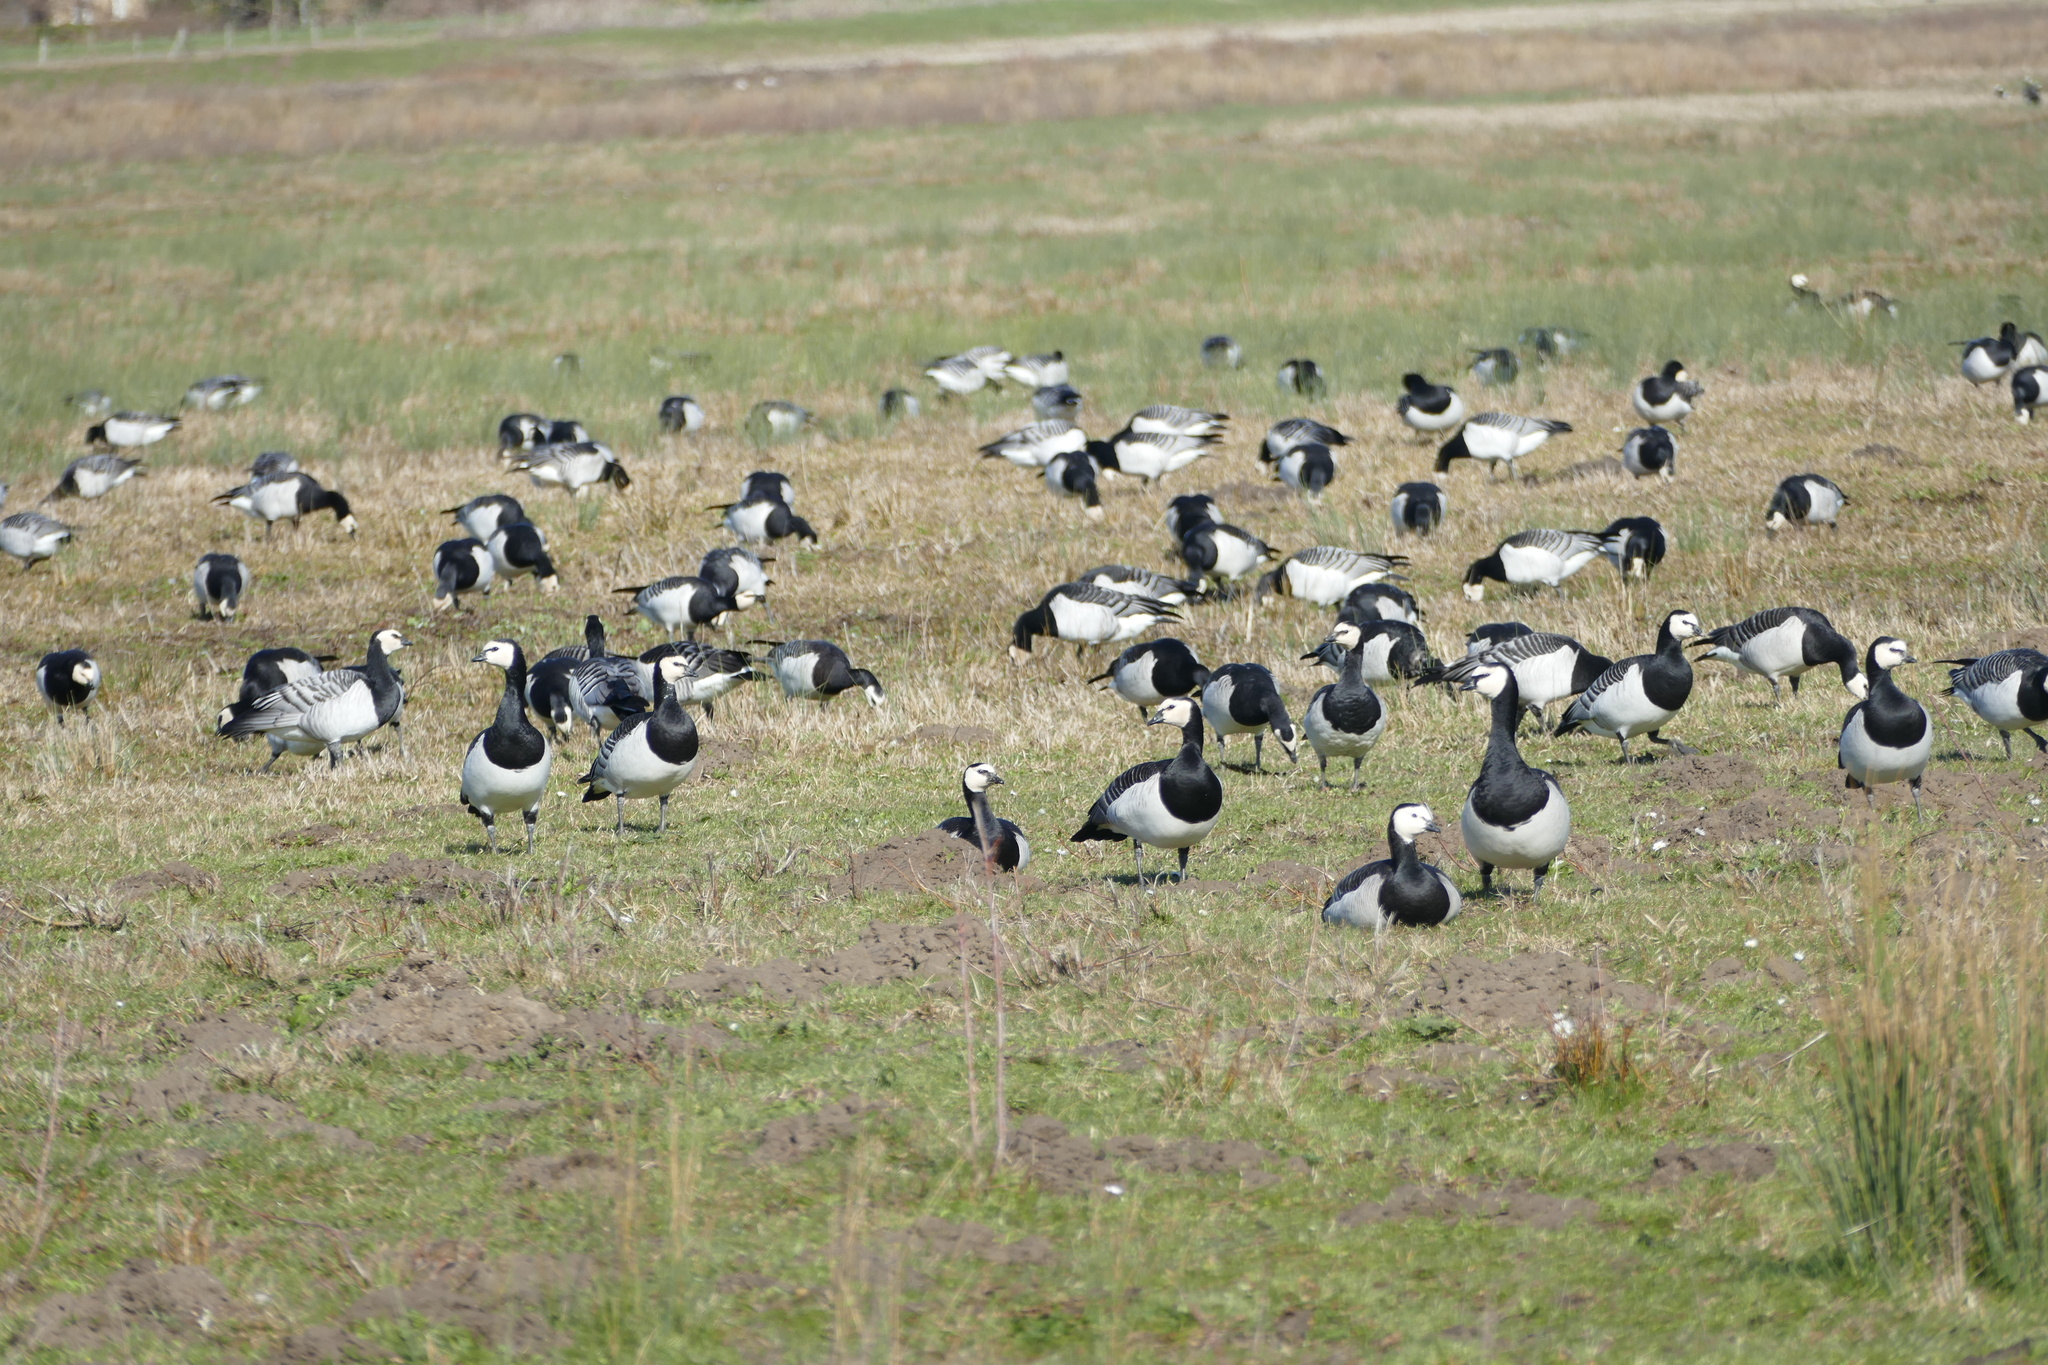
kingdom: Animalia
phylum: Chordata
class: Aves
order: Anseriformes
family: Anatidae
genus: Branta
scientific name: Branta leucopsis
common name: Barnacle goose
